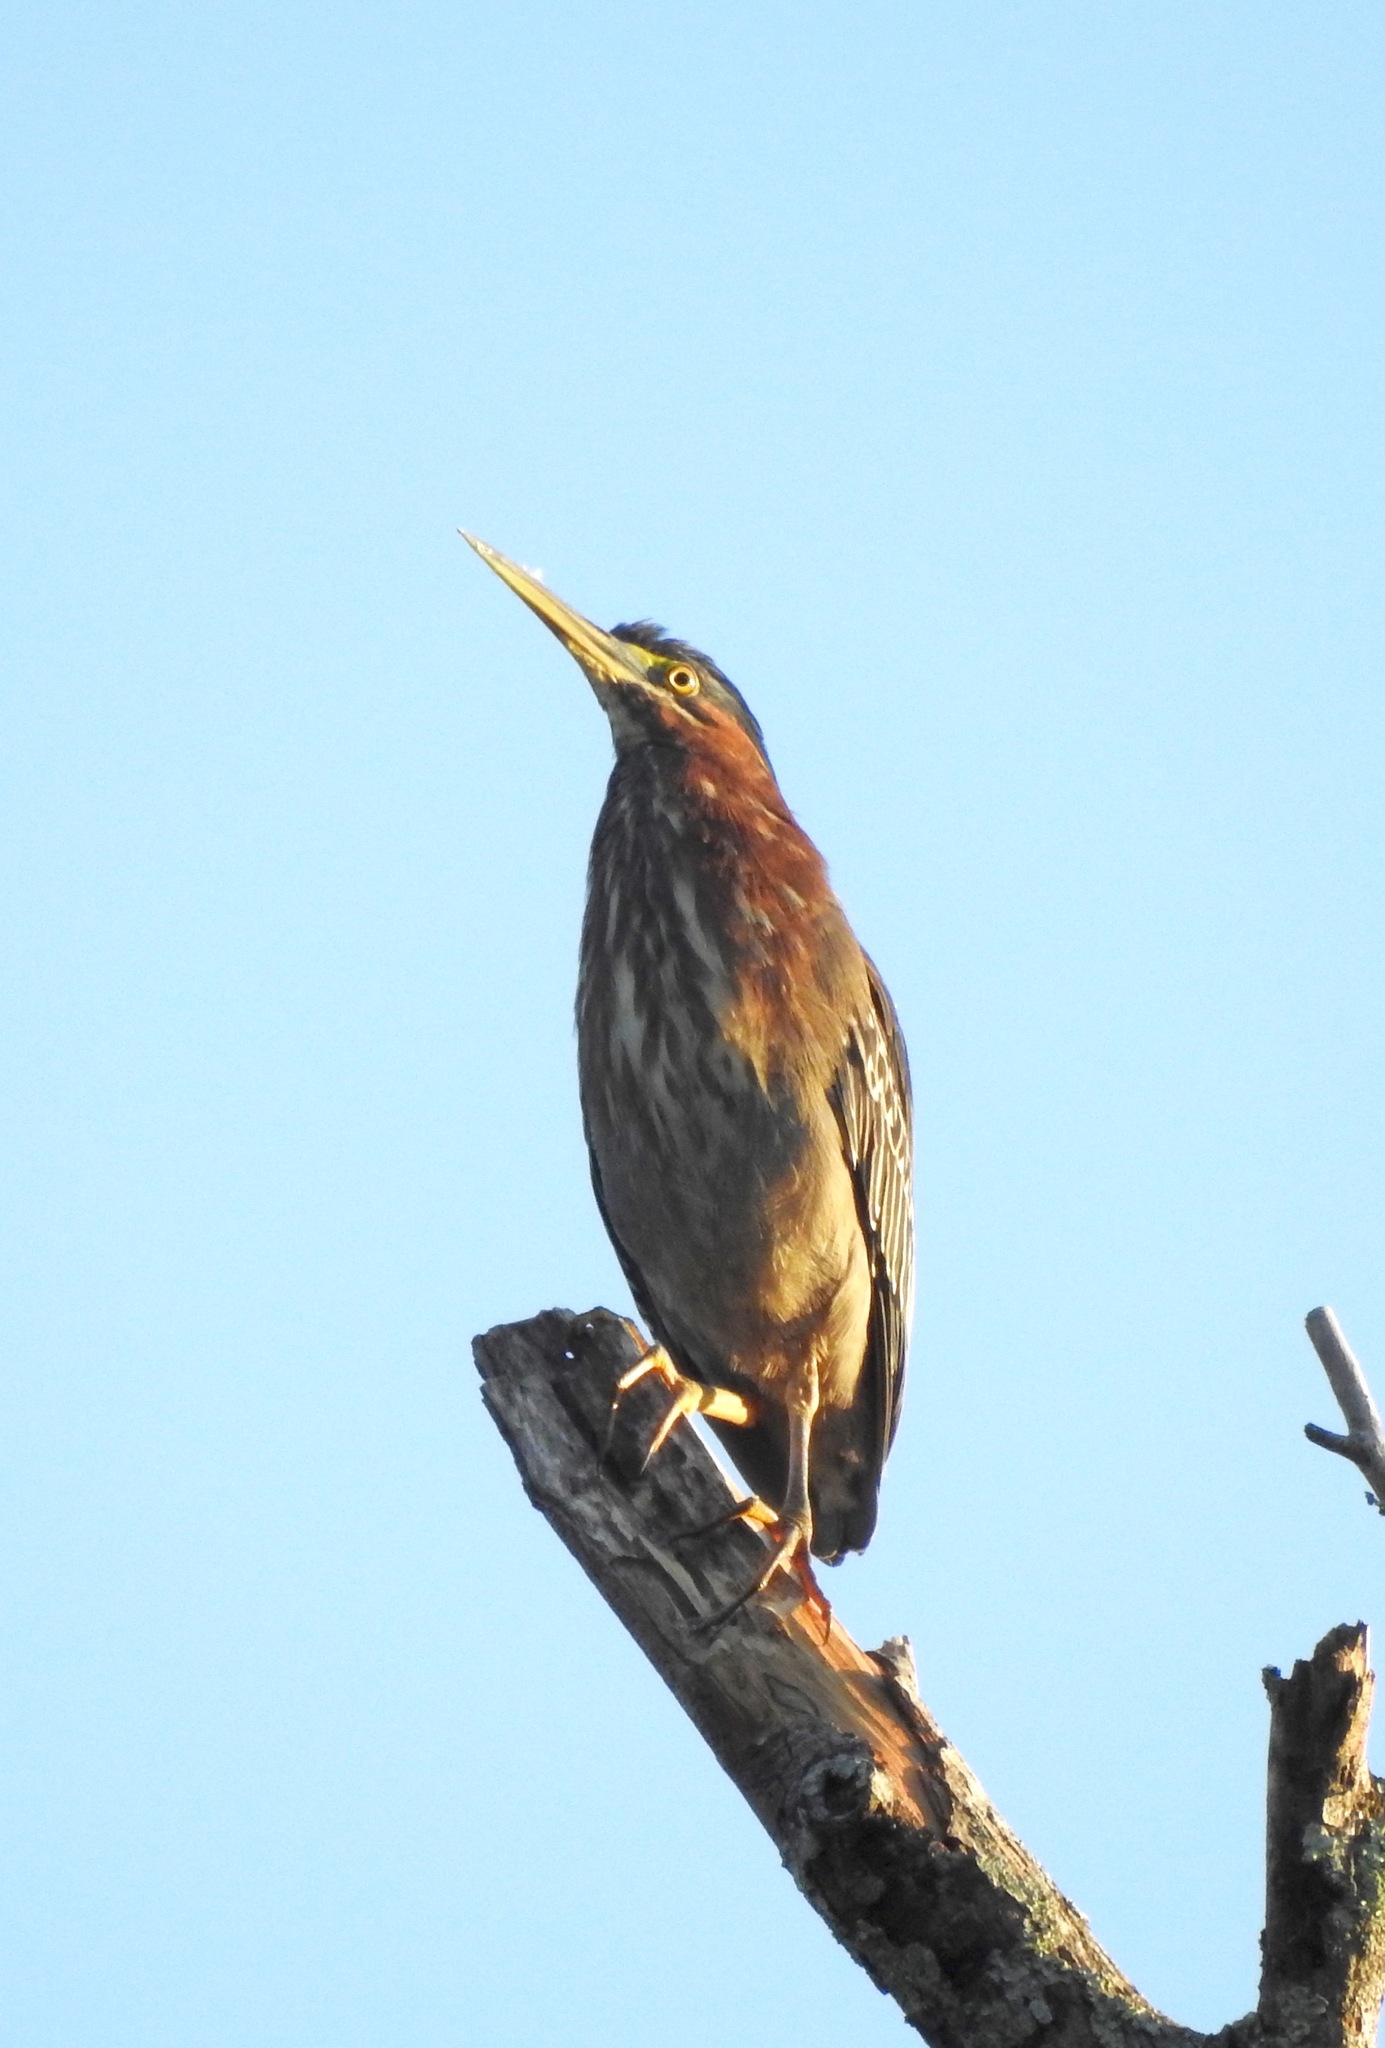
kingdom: Animalia
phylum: Chordata
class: Aves
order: Pelecaniformes
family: Ardeidae
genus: Butorides
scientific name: Butorides virescens
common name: Green heron
